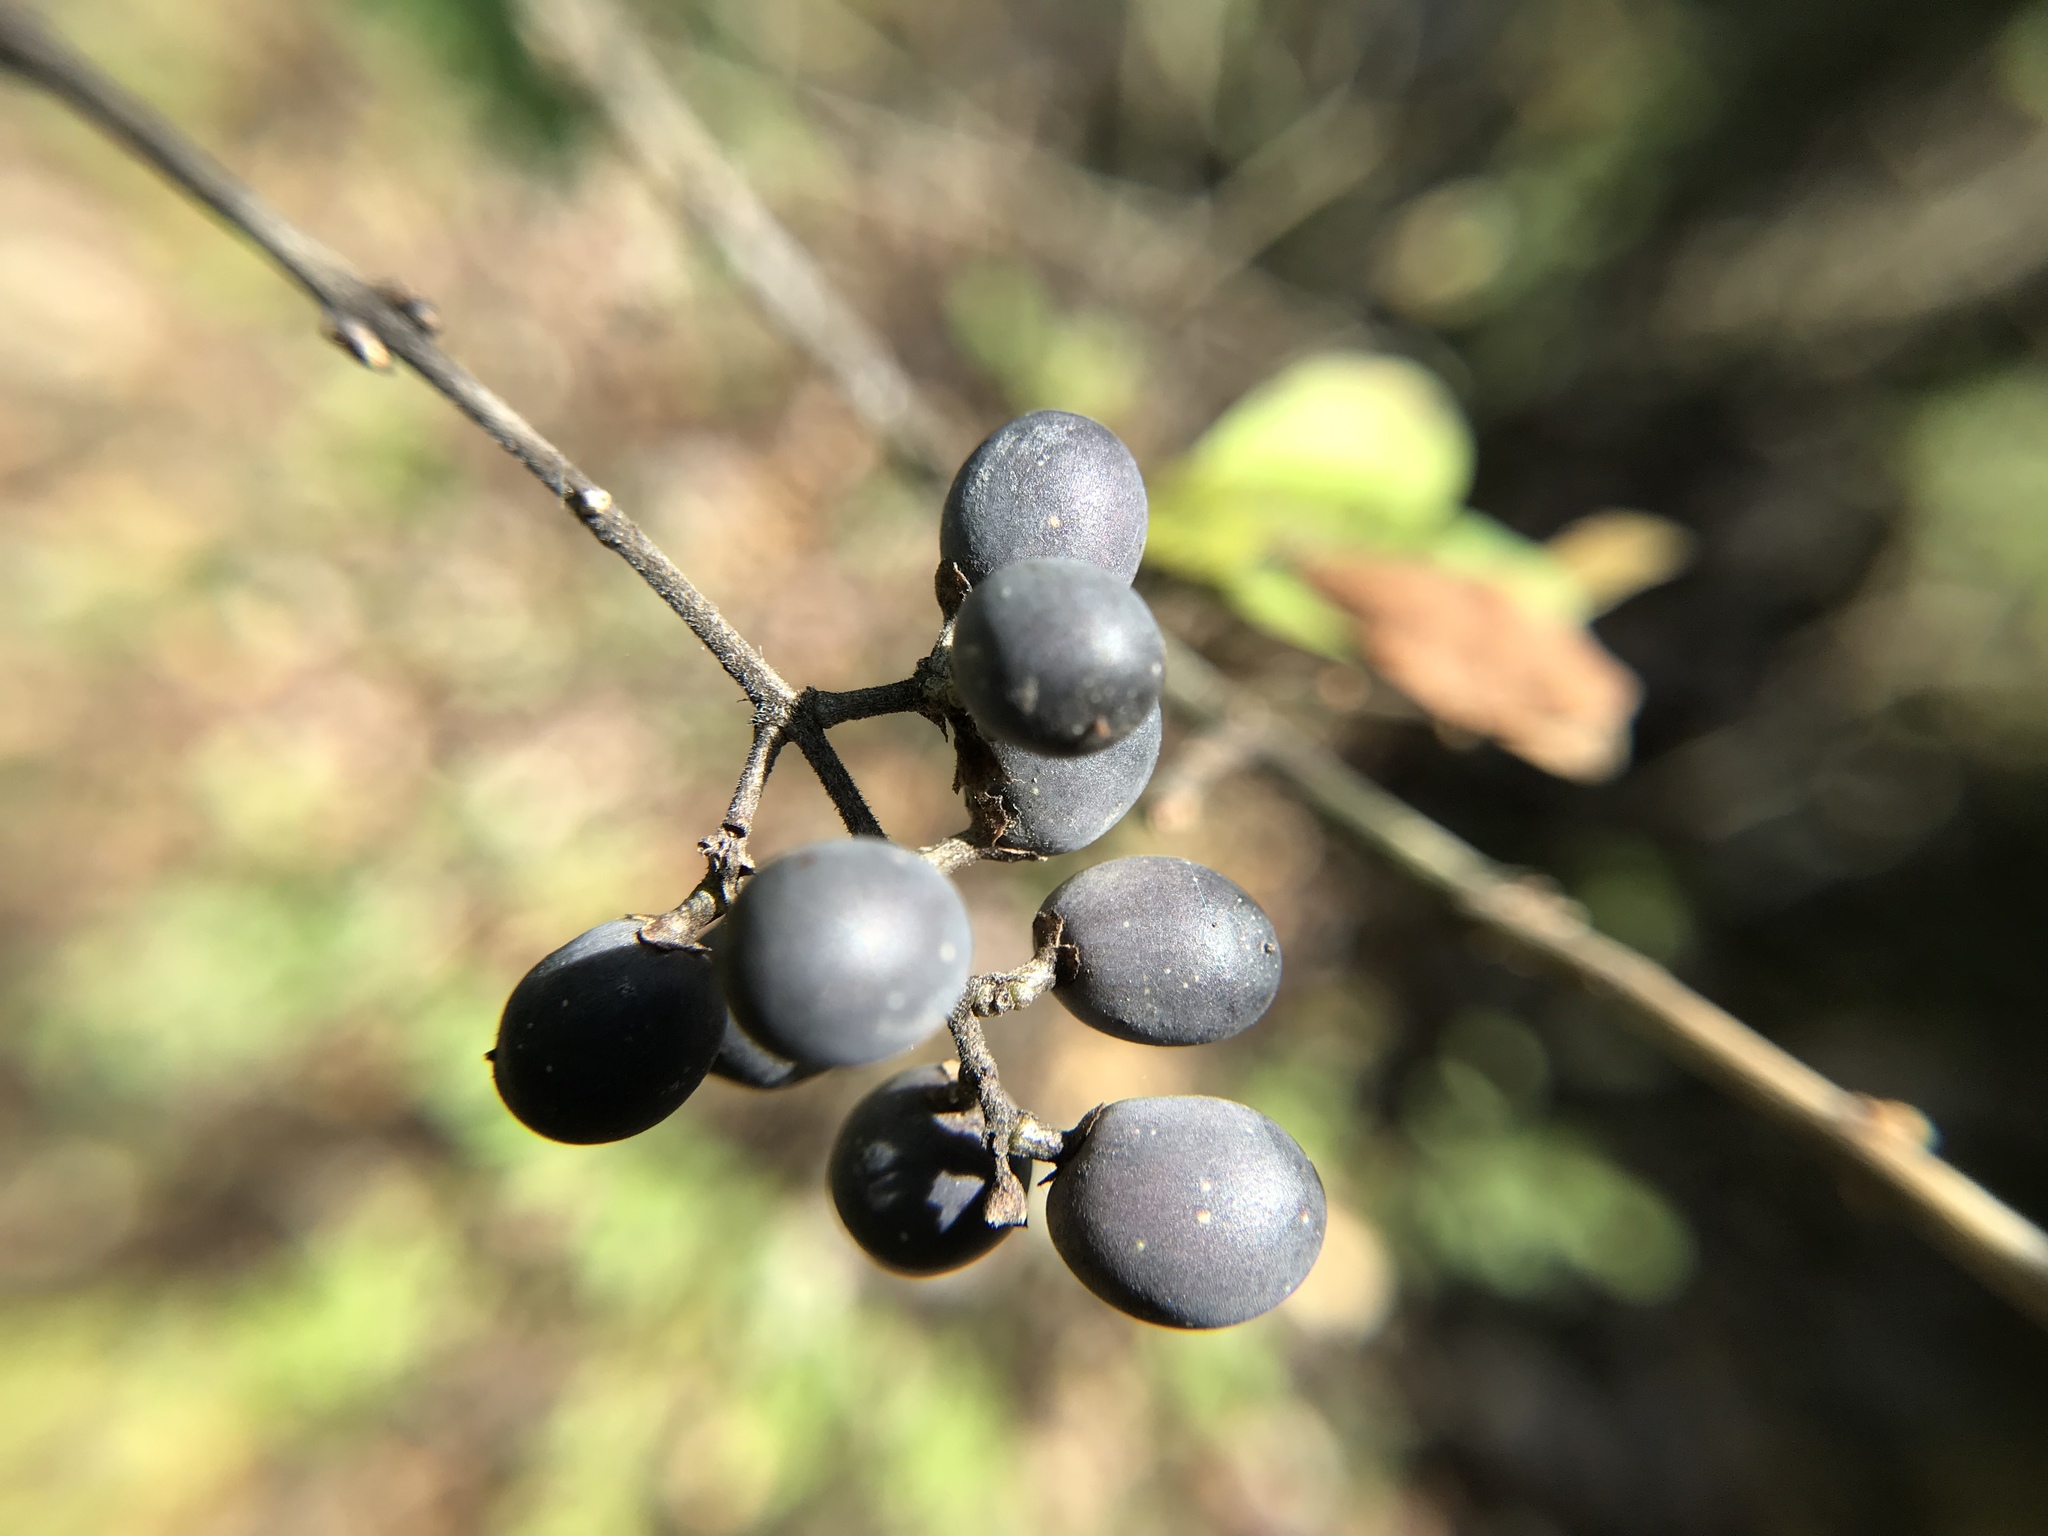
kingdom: Plantae
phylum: Tracheophyta
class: Magnoliopsida
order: Lamiales
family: Oleaceae
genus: Ligustrum
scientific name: Ligustrum obtusifolium
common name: Border privet
